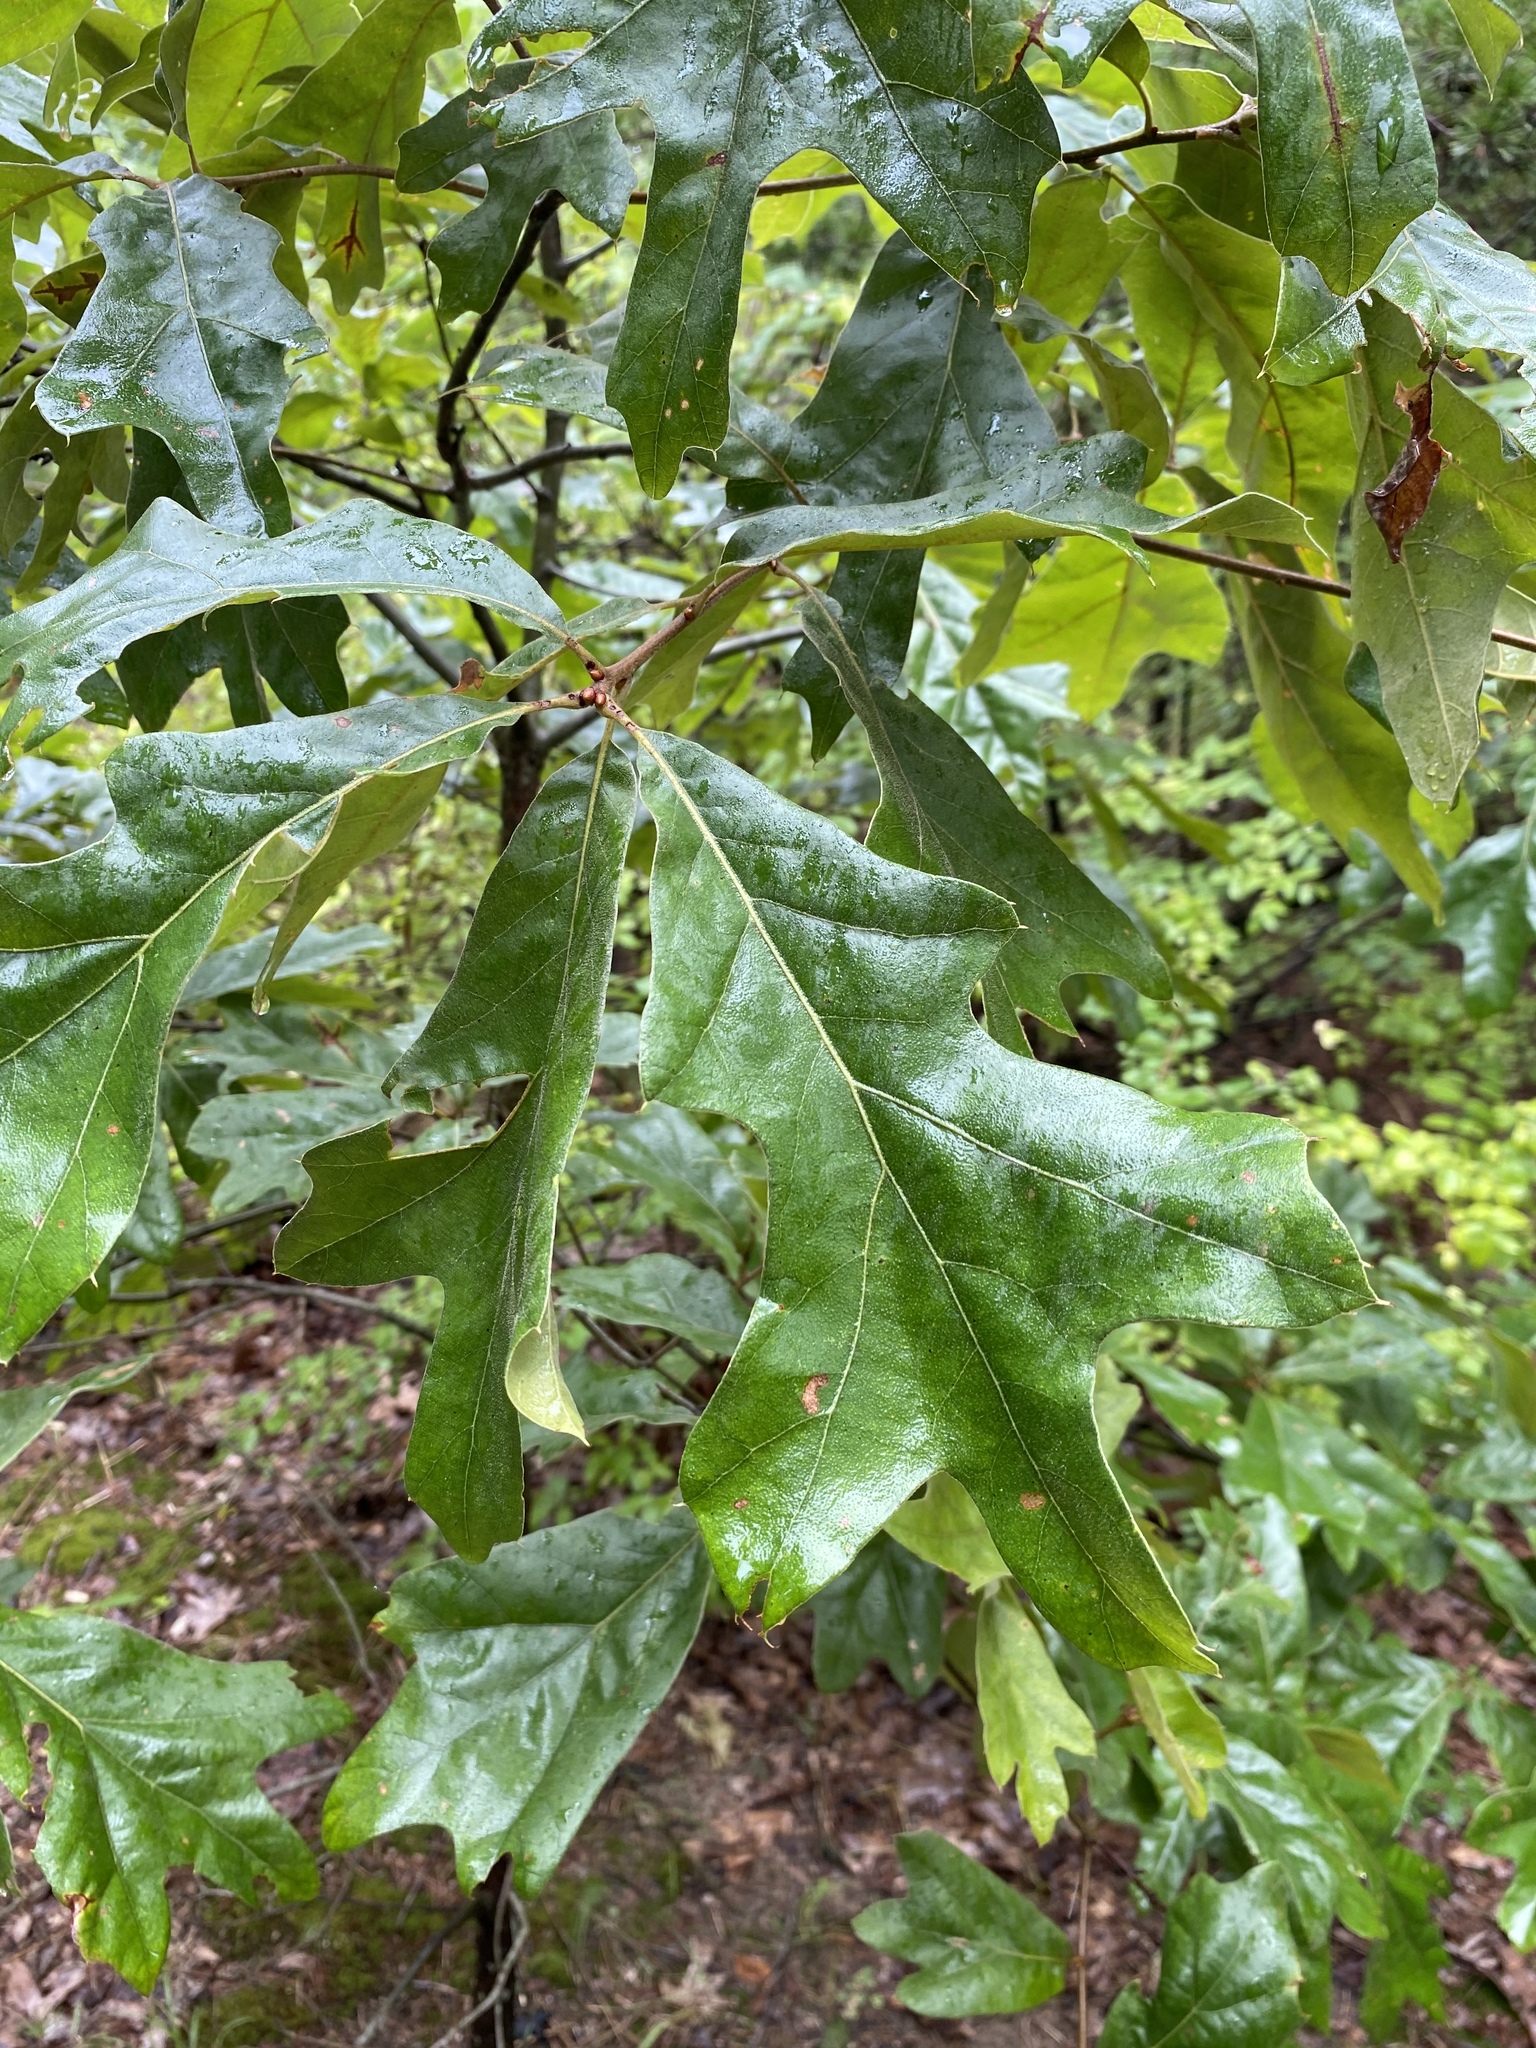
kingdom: Plantae
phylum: Tracheophyta
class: Magnoliopsida
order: Fagales
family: Fagaceae
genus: Quercus
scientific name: Quercus falcata
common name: Southern red oak
